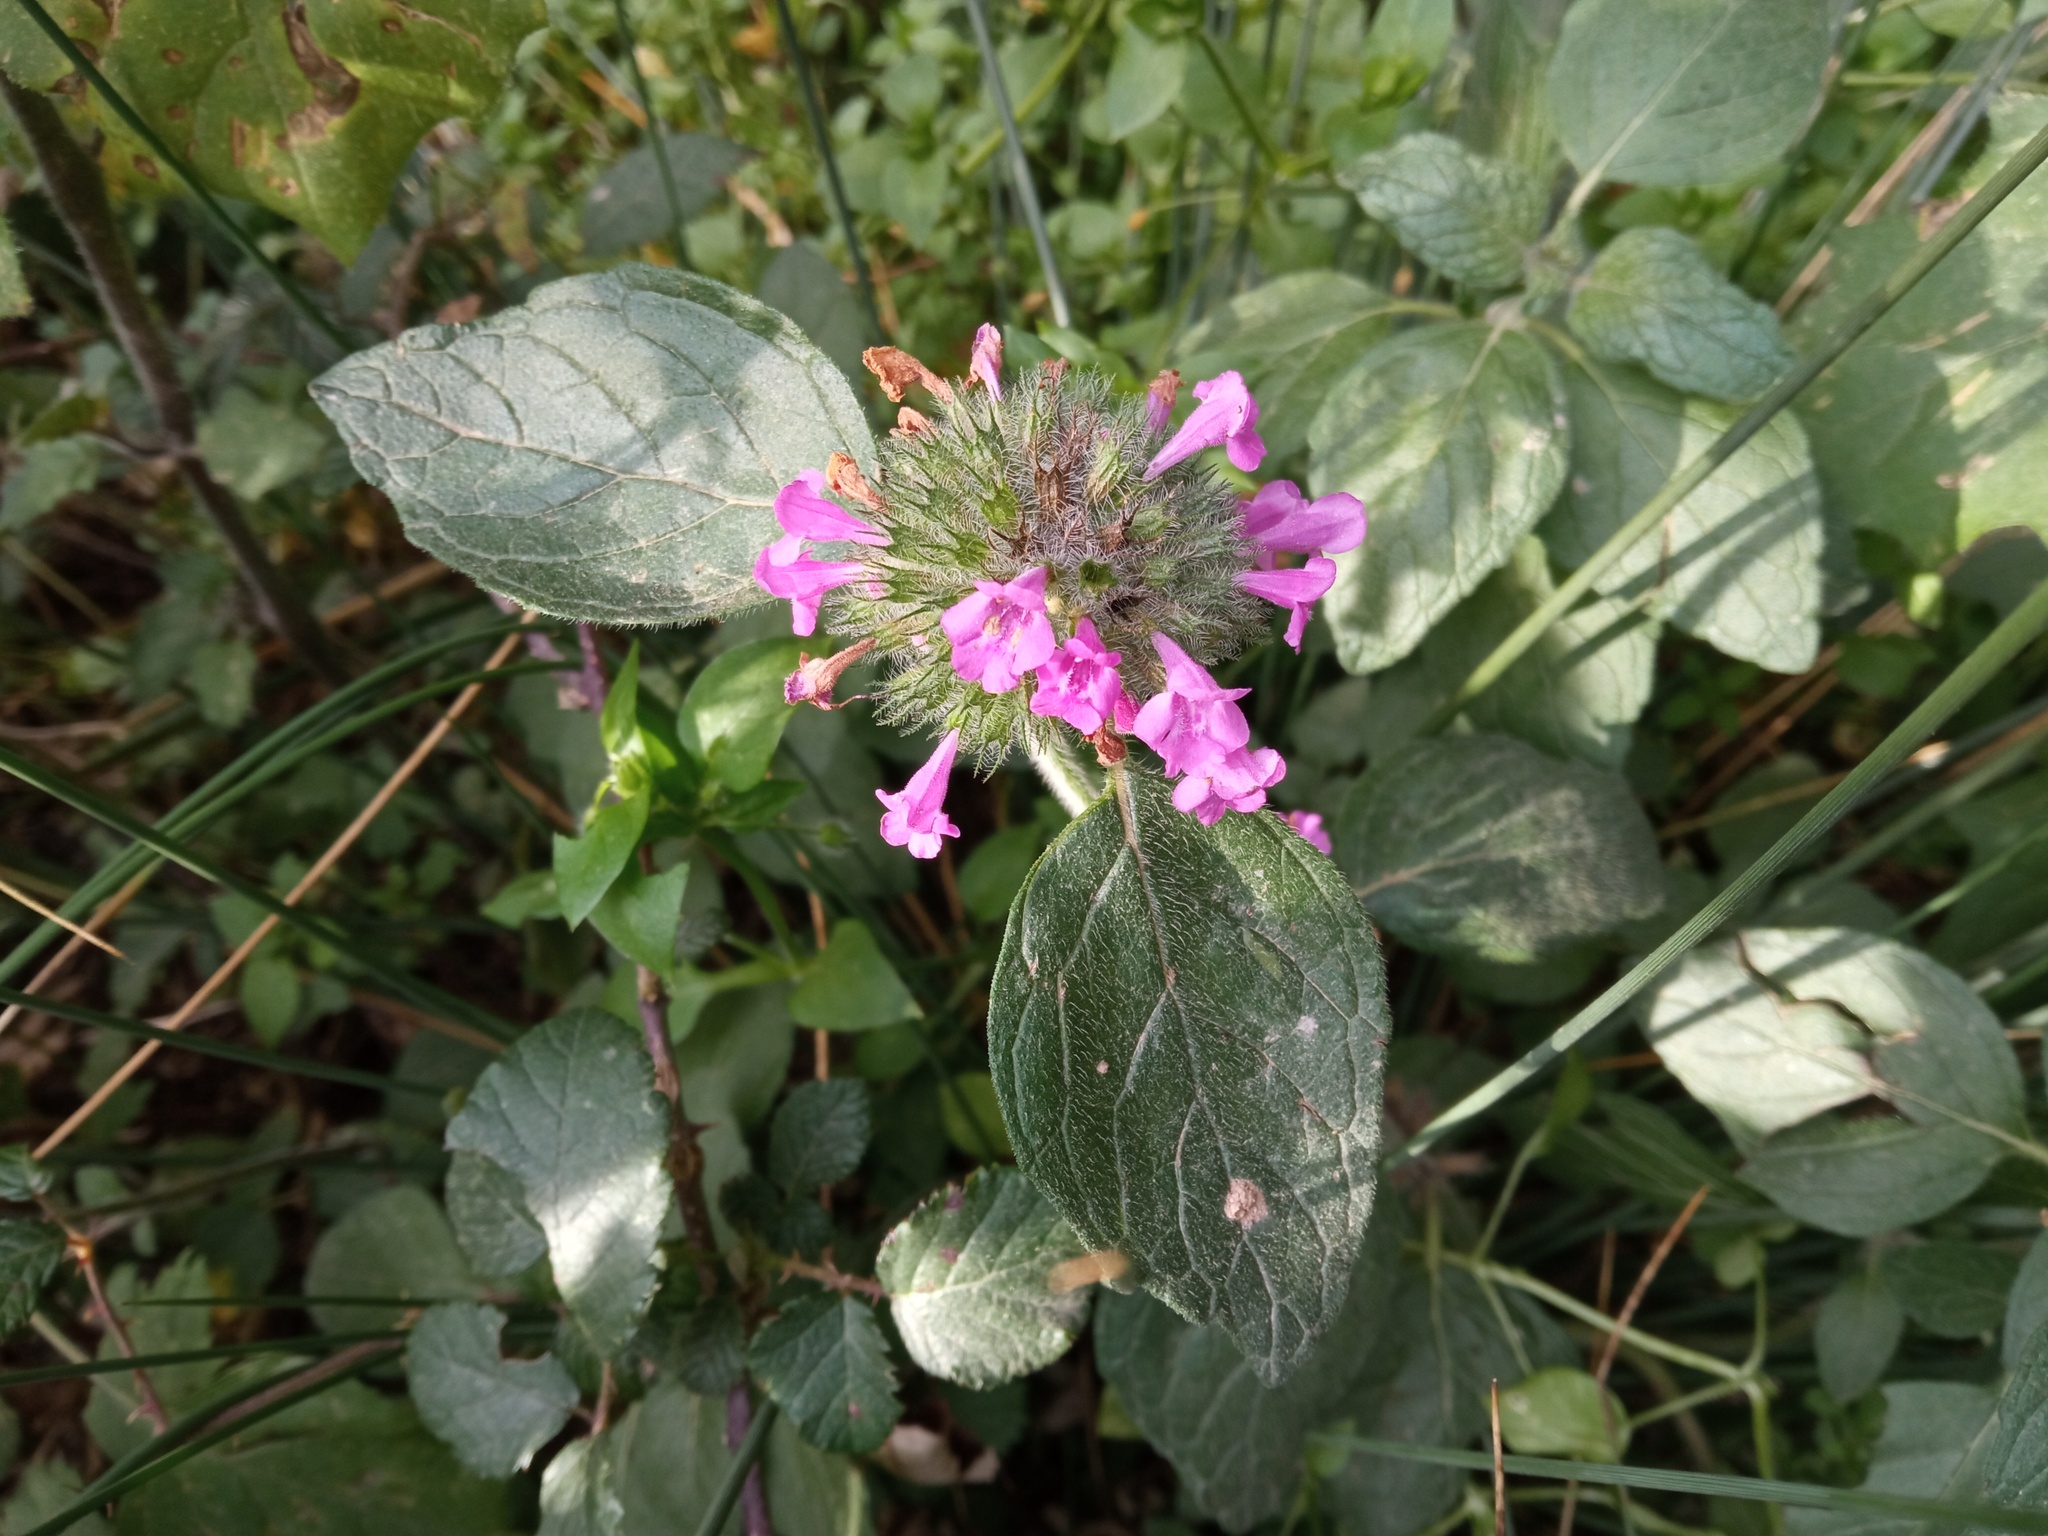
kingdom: Plantae
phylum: Tracheophyta
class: Magnoliopsida
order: Lamiales
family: Lamiaceae
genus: Clinopodium
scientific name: Clinopodium vulgare
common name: Wild basil
